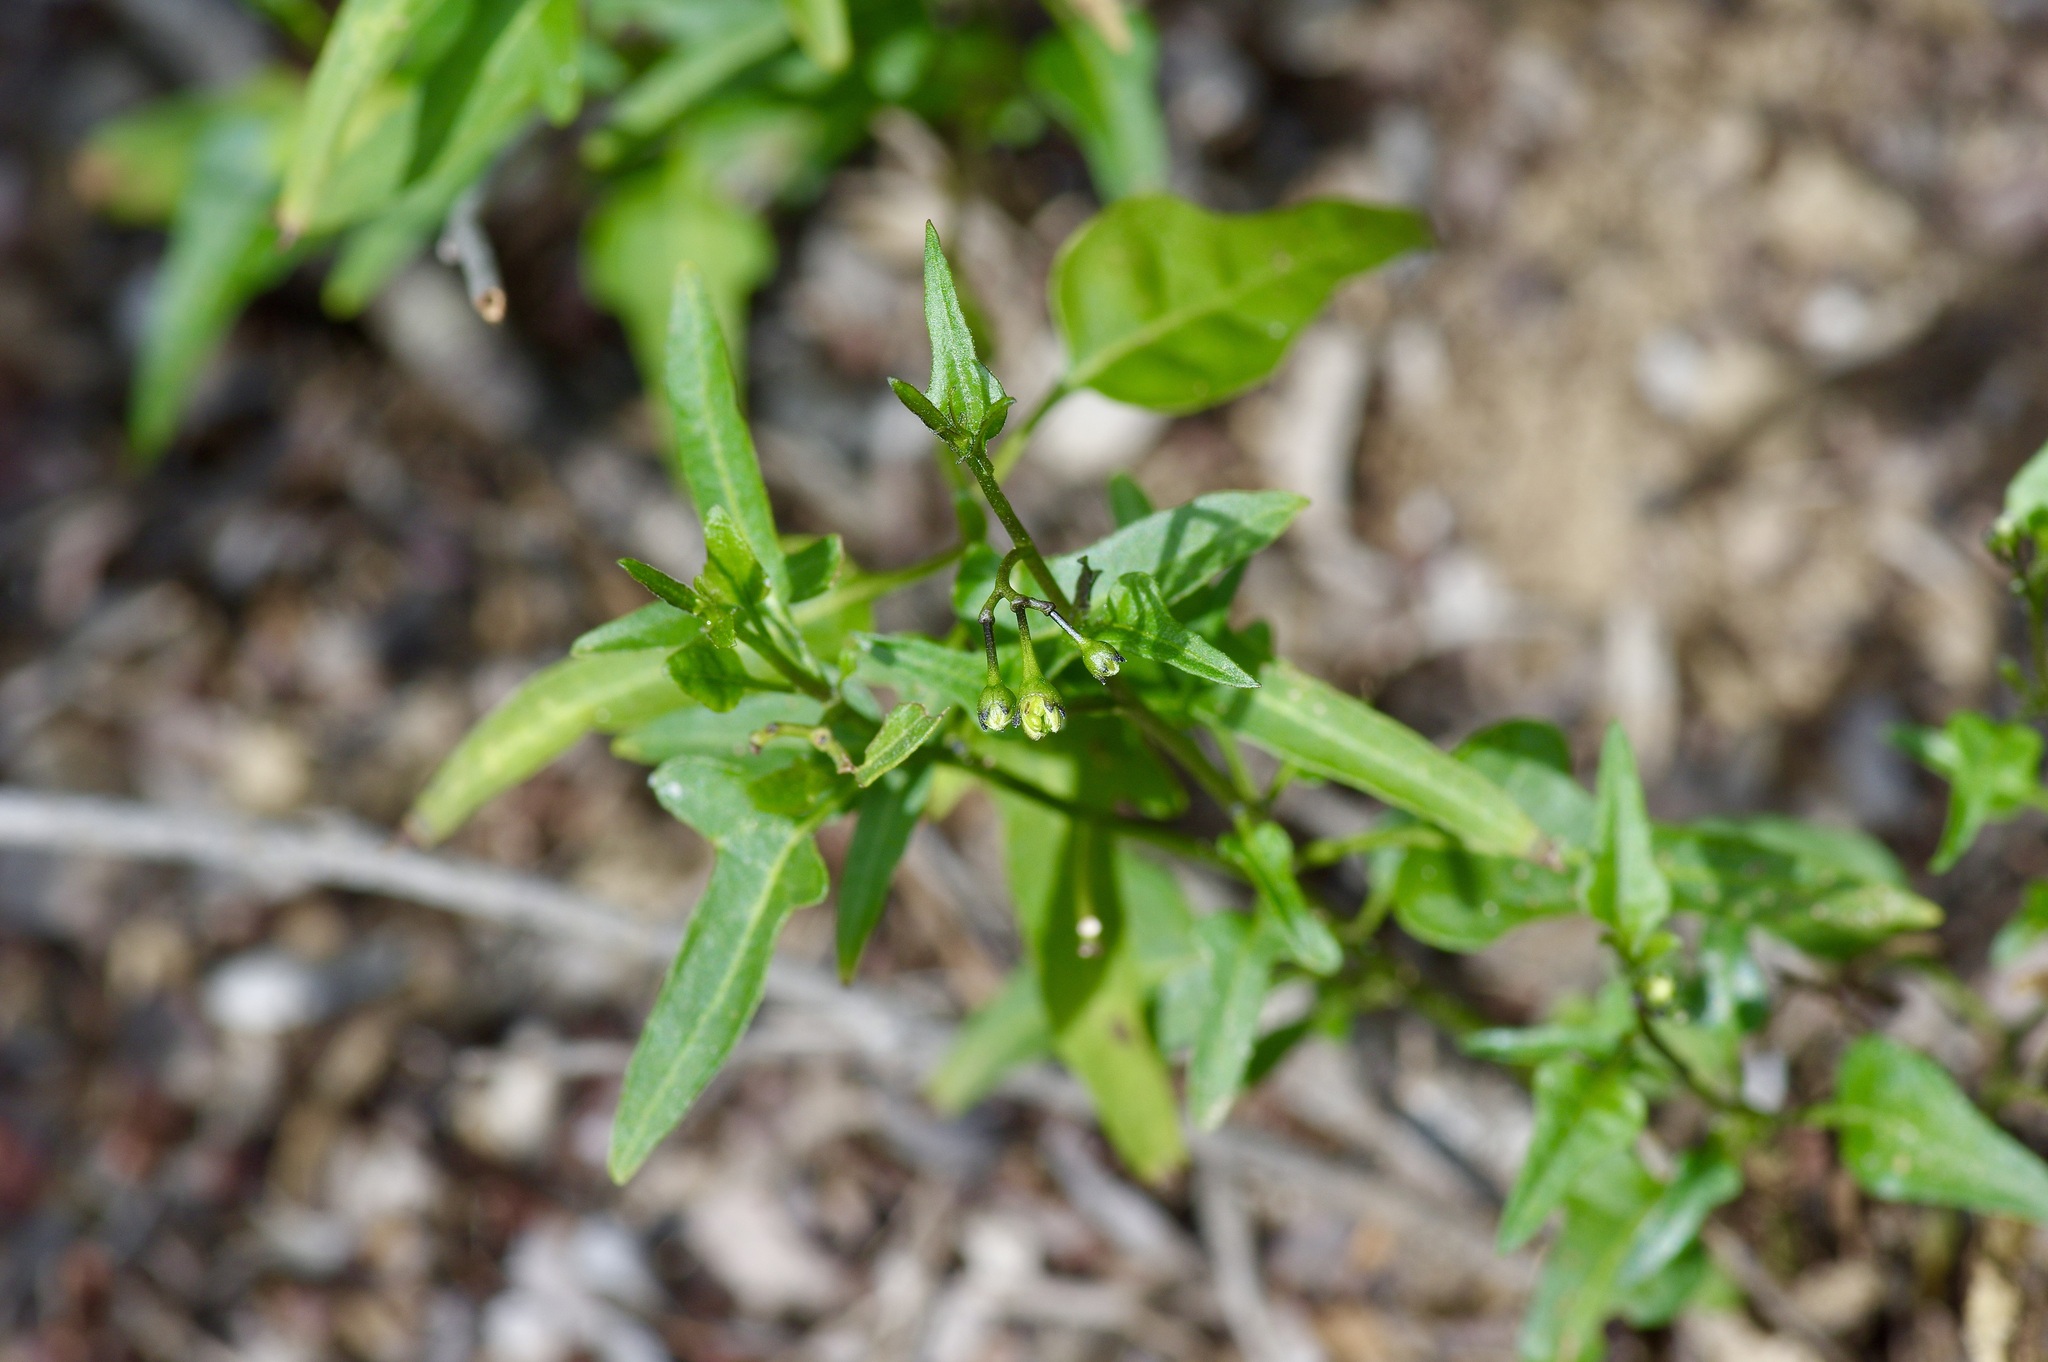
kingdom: Plantae
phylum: Tracheophyta
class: Magnoliopsida
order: Solanales
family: Solanaceae
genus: Solanum
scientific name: Solanum triquetrum
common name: Texas nightshade
